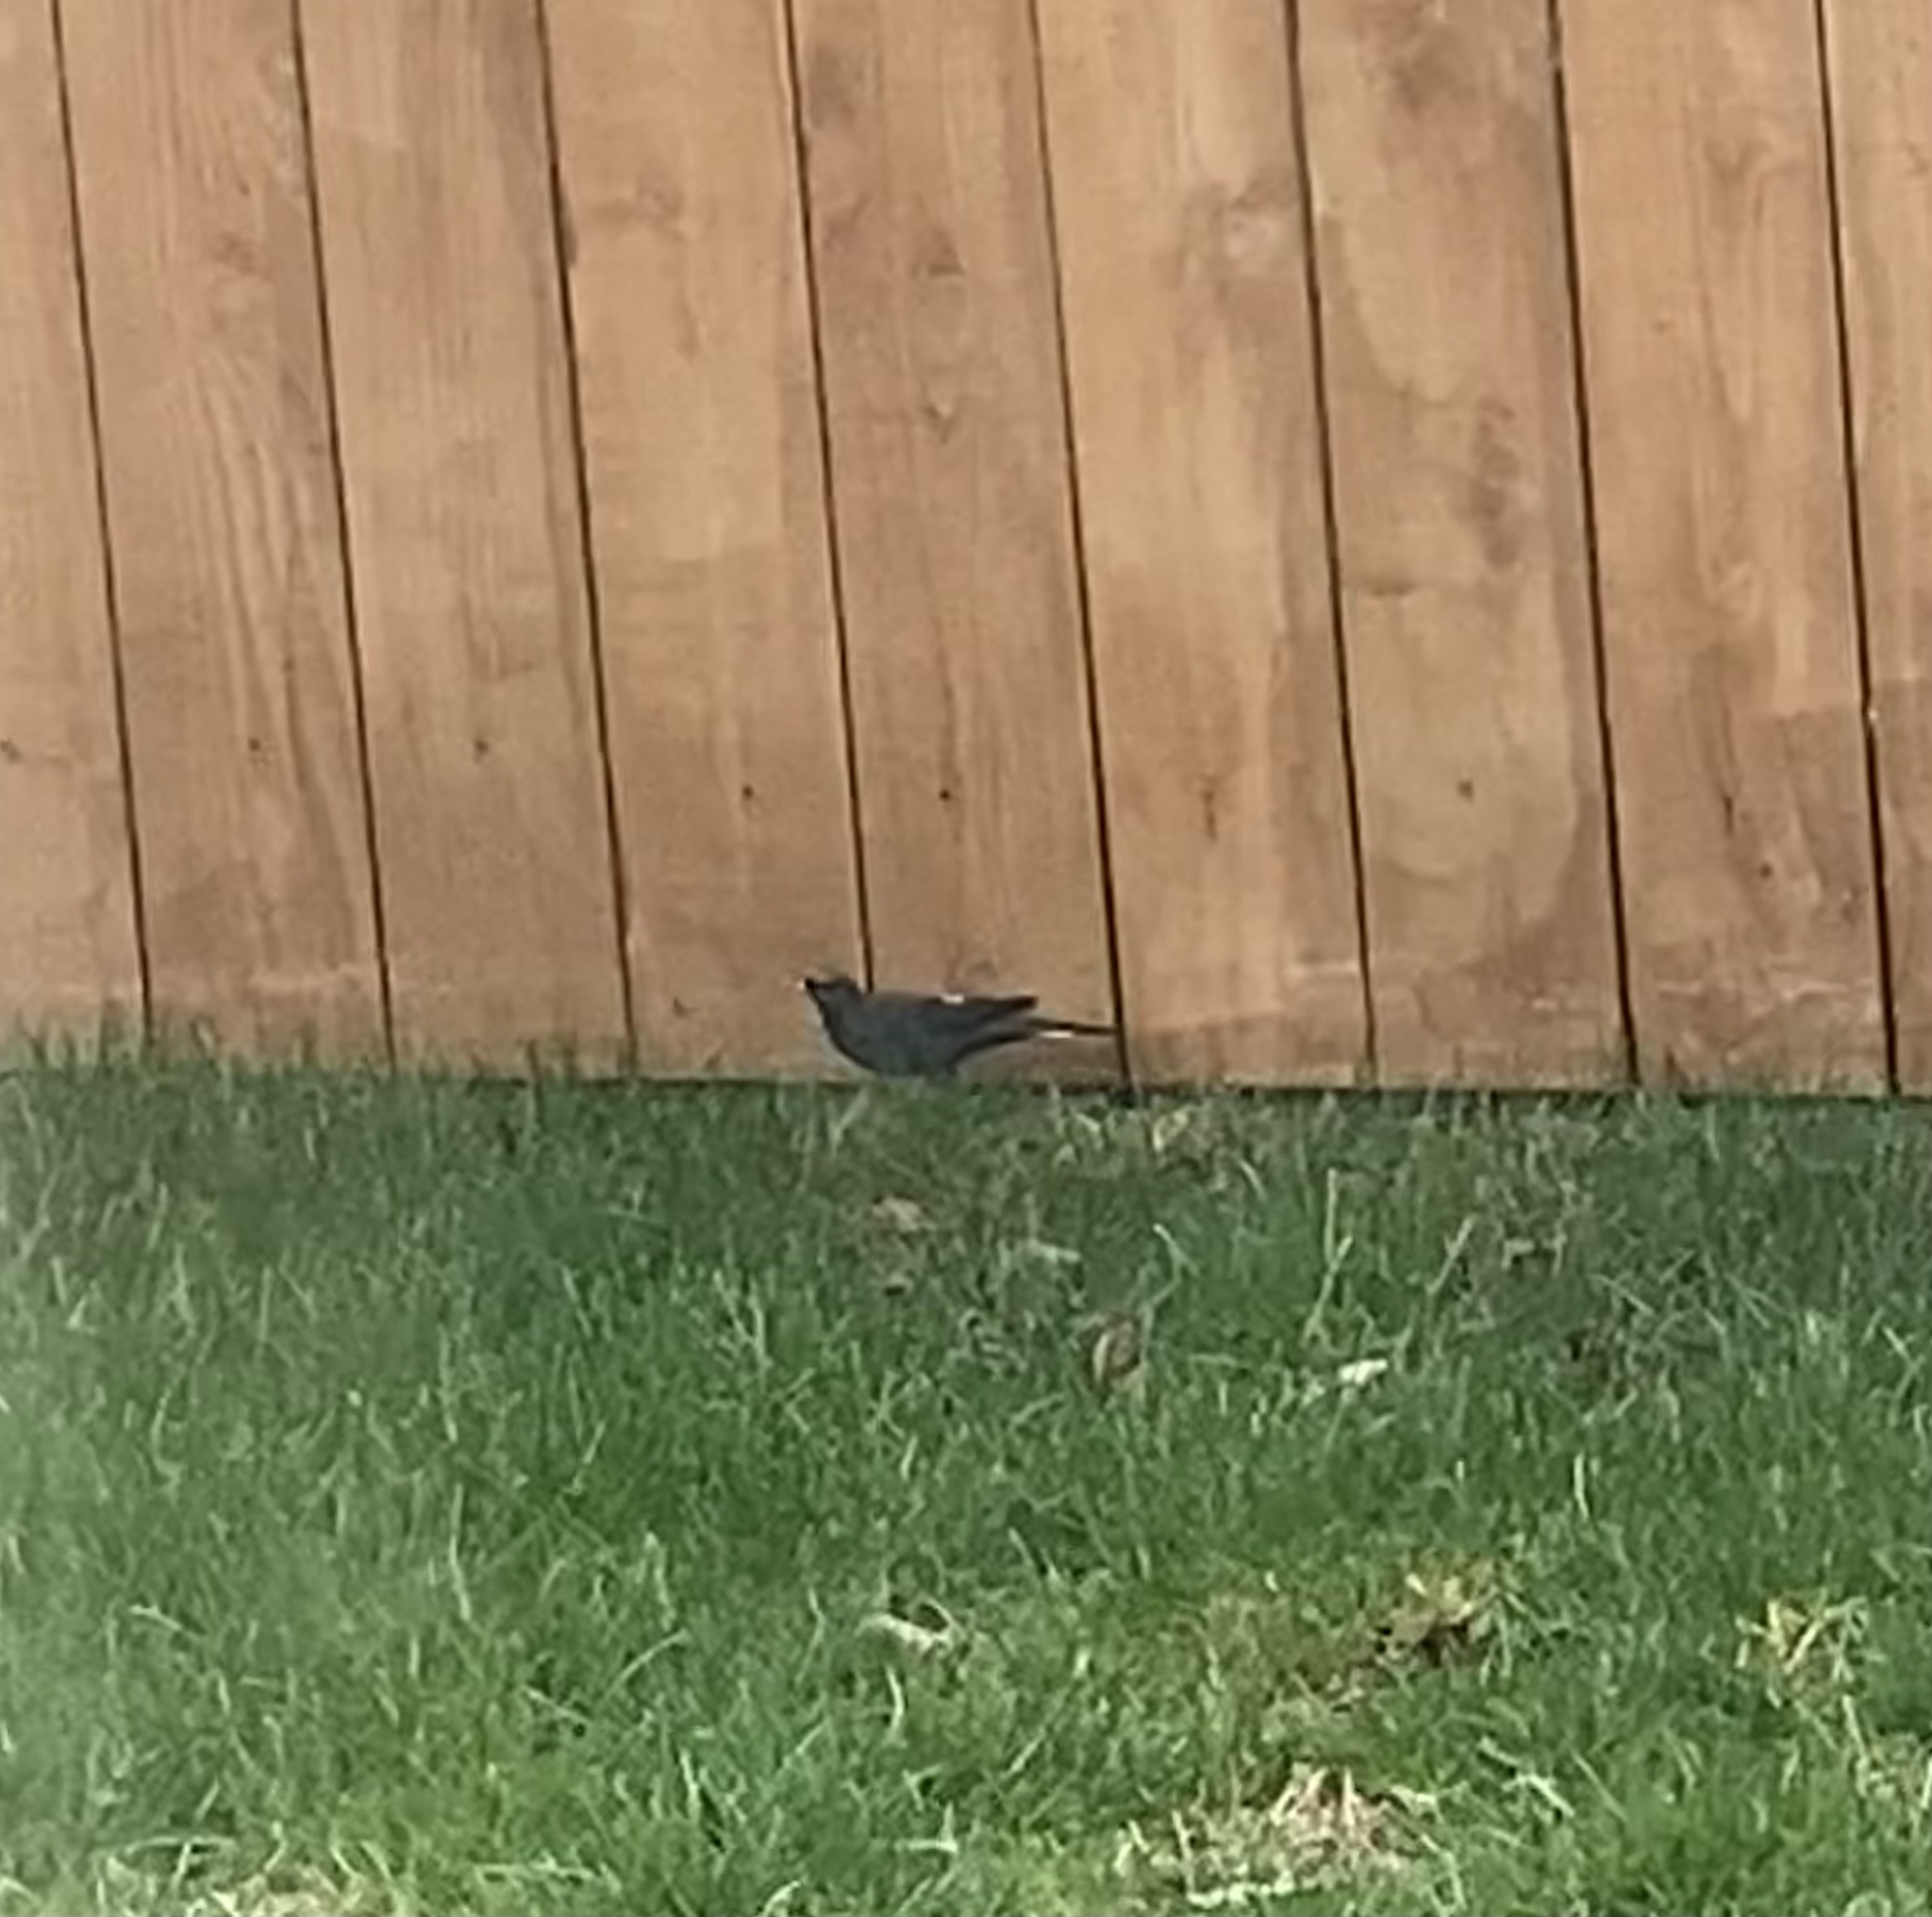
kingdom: Animalia
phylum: Chordata
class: Aves
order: Passeriformes
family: Icteridae
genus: Euphagus
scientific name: Euphagus cyanocephalus
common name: Brewer's blackbird
